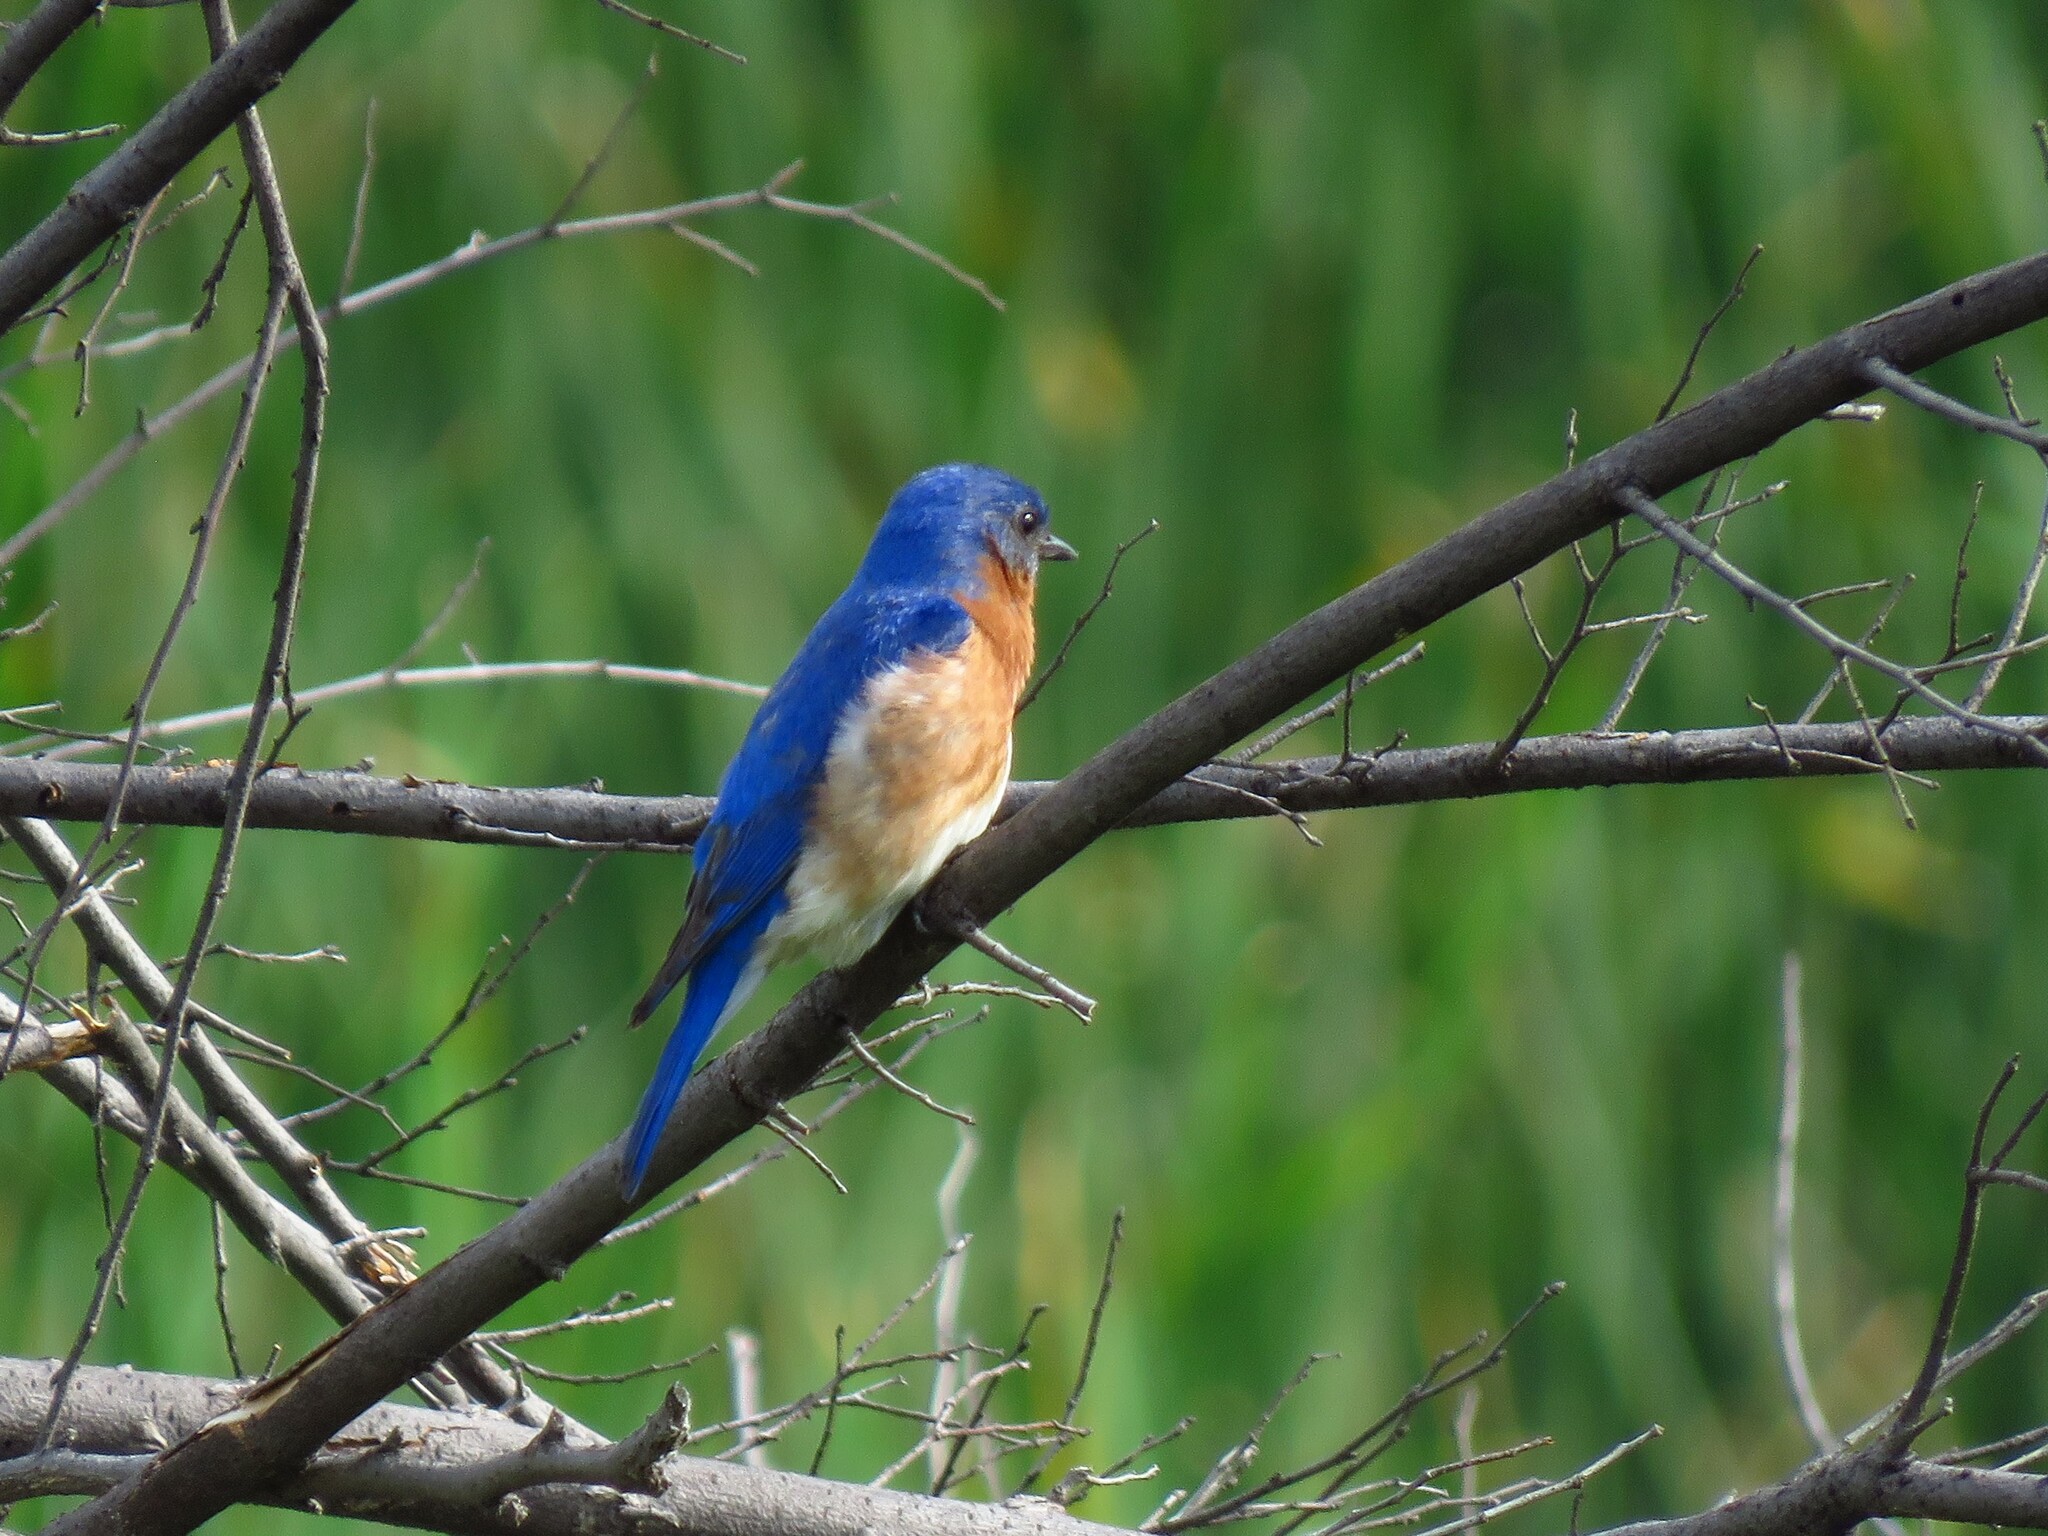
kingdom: Animalia
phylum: Chordata
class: Aves
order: Passeriformes
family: Turdidae
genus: Sialia
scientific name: Sialia sialis
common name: Eastern bluebird
